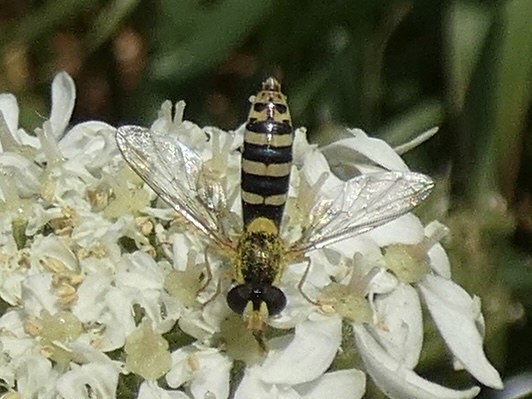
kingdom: Animalia
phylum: Arthropoda
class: Insecta
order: Diptera
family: Syrphidae
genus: Sphaerophoria
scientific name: Sphaerophoria
